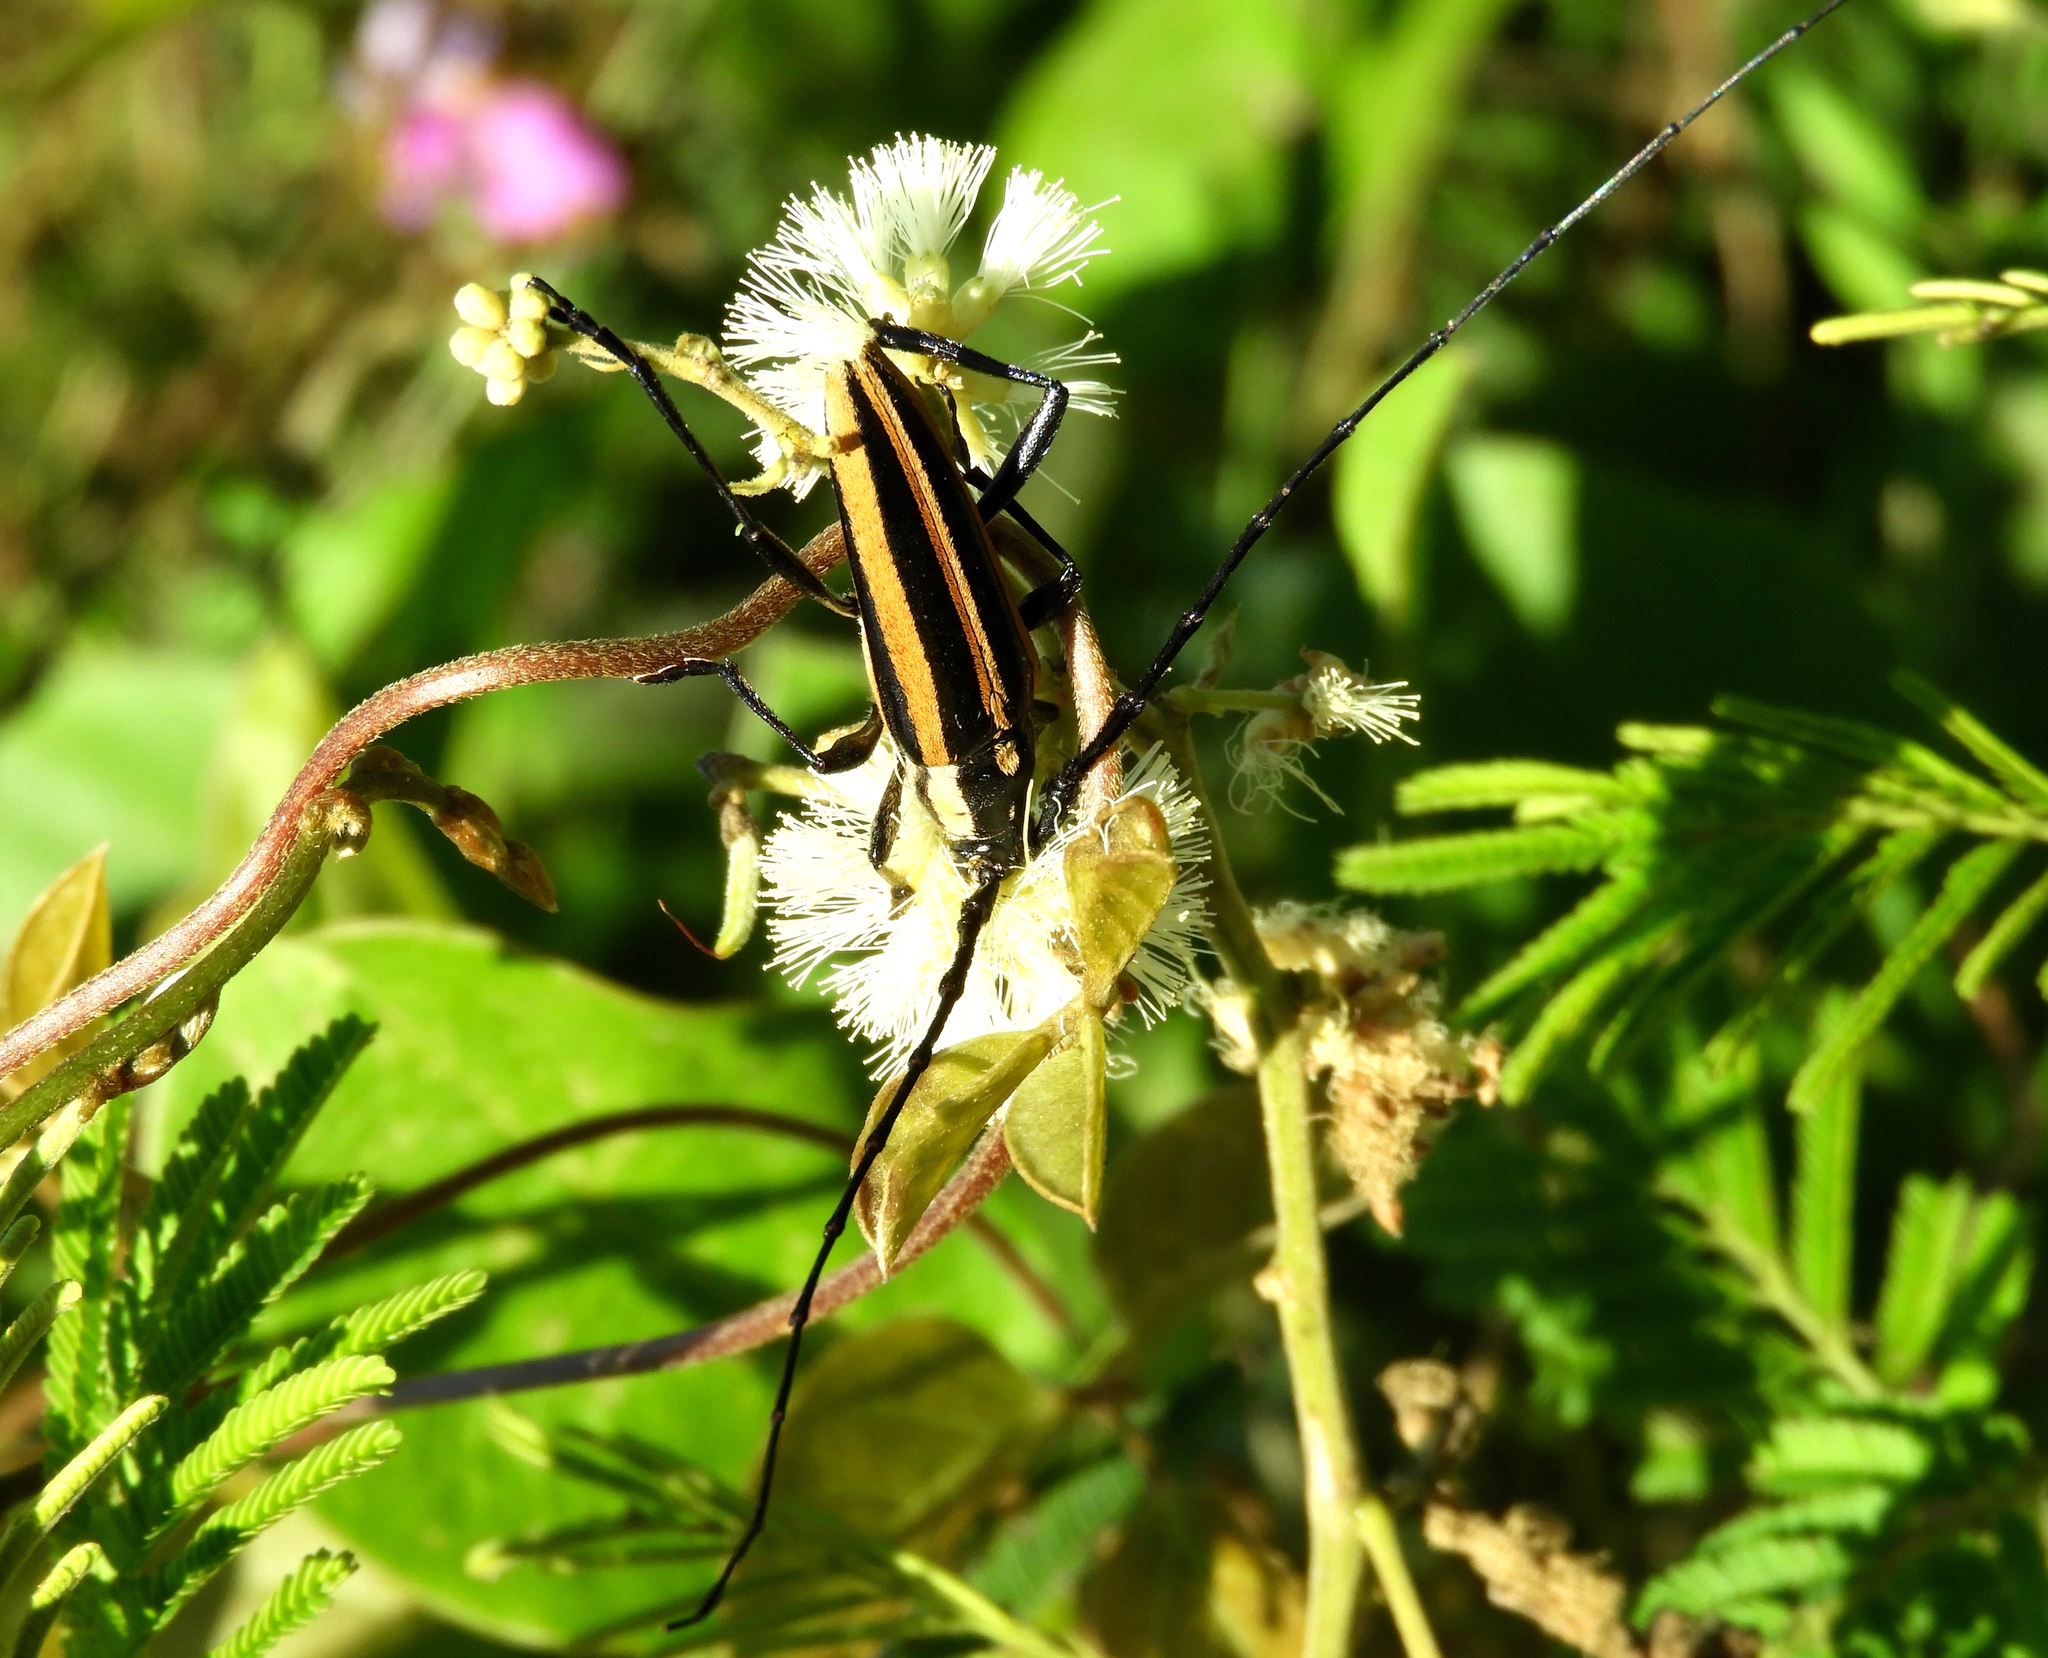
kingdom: Animalia
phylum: Arthropoda
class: Insecta
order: Coleoptera
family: Cerambycidae
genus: Sphaenothecus
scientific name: Sphaenothecus trilineatus
